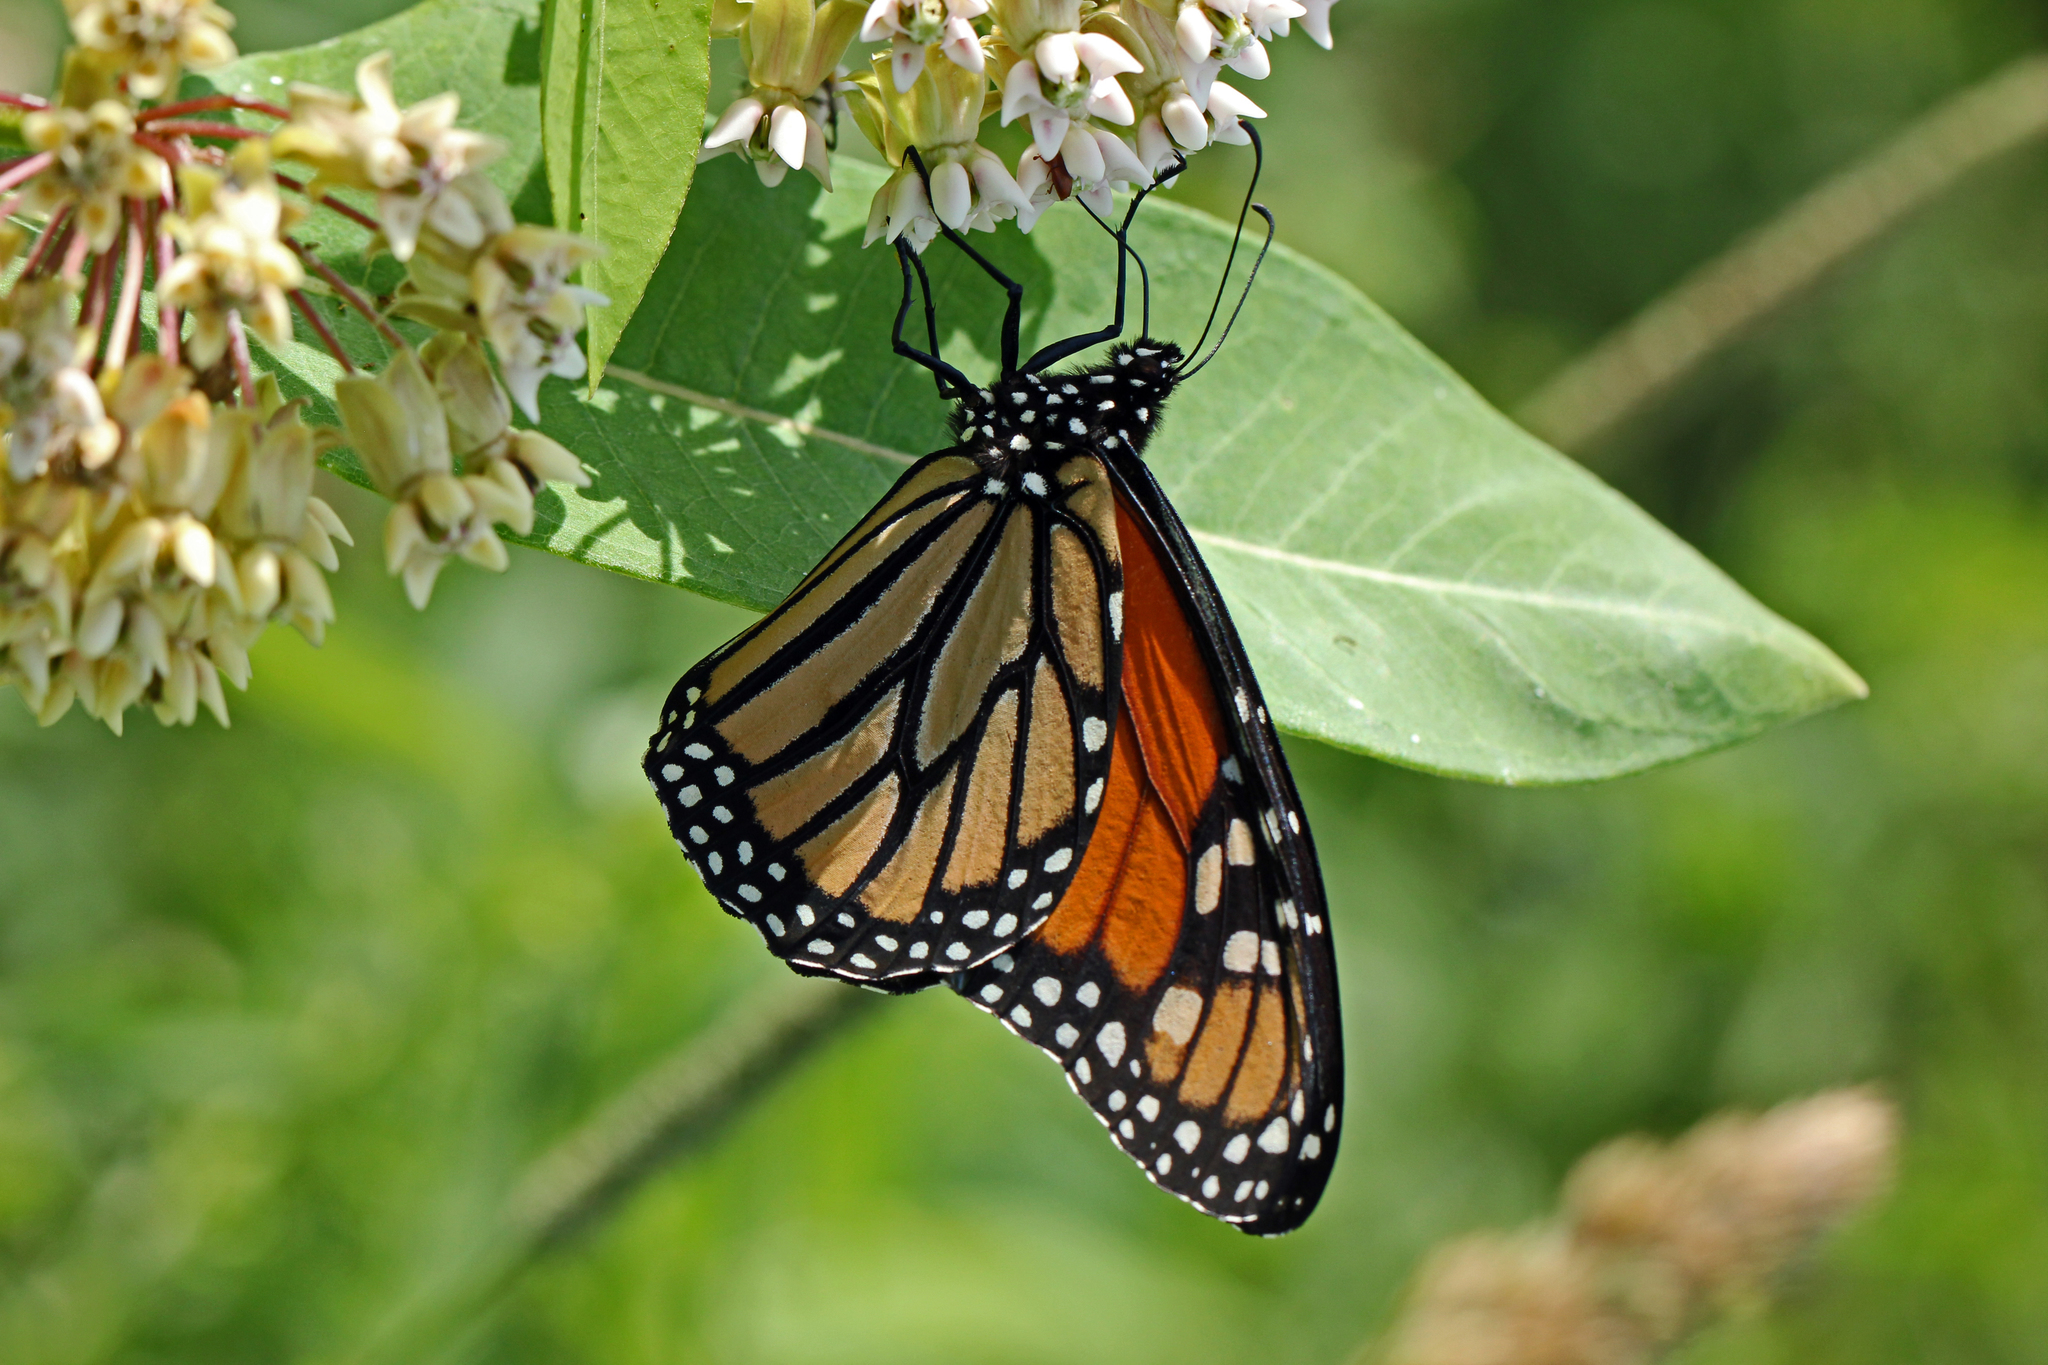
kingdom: Animalia
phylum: Arthropoda
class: Insecta
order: Lepidoptera
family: Nymphalidae
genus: Danaus
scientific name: Danaus plexippus
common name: Monarch
